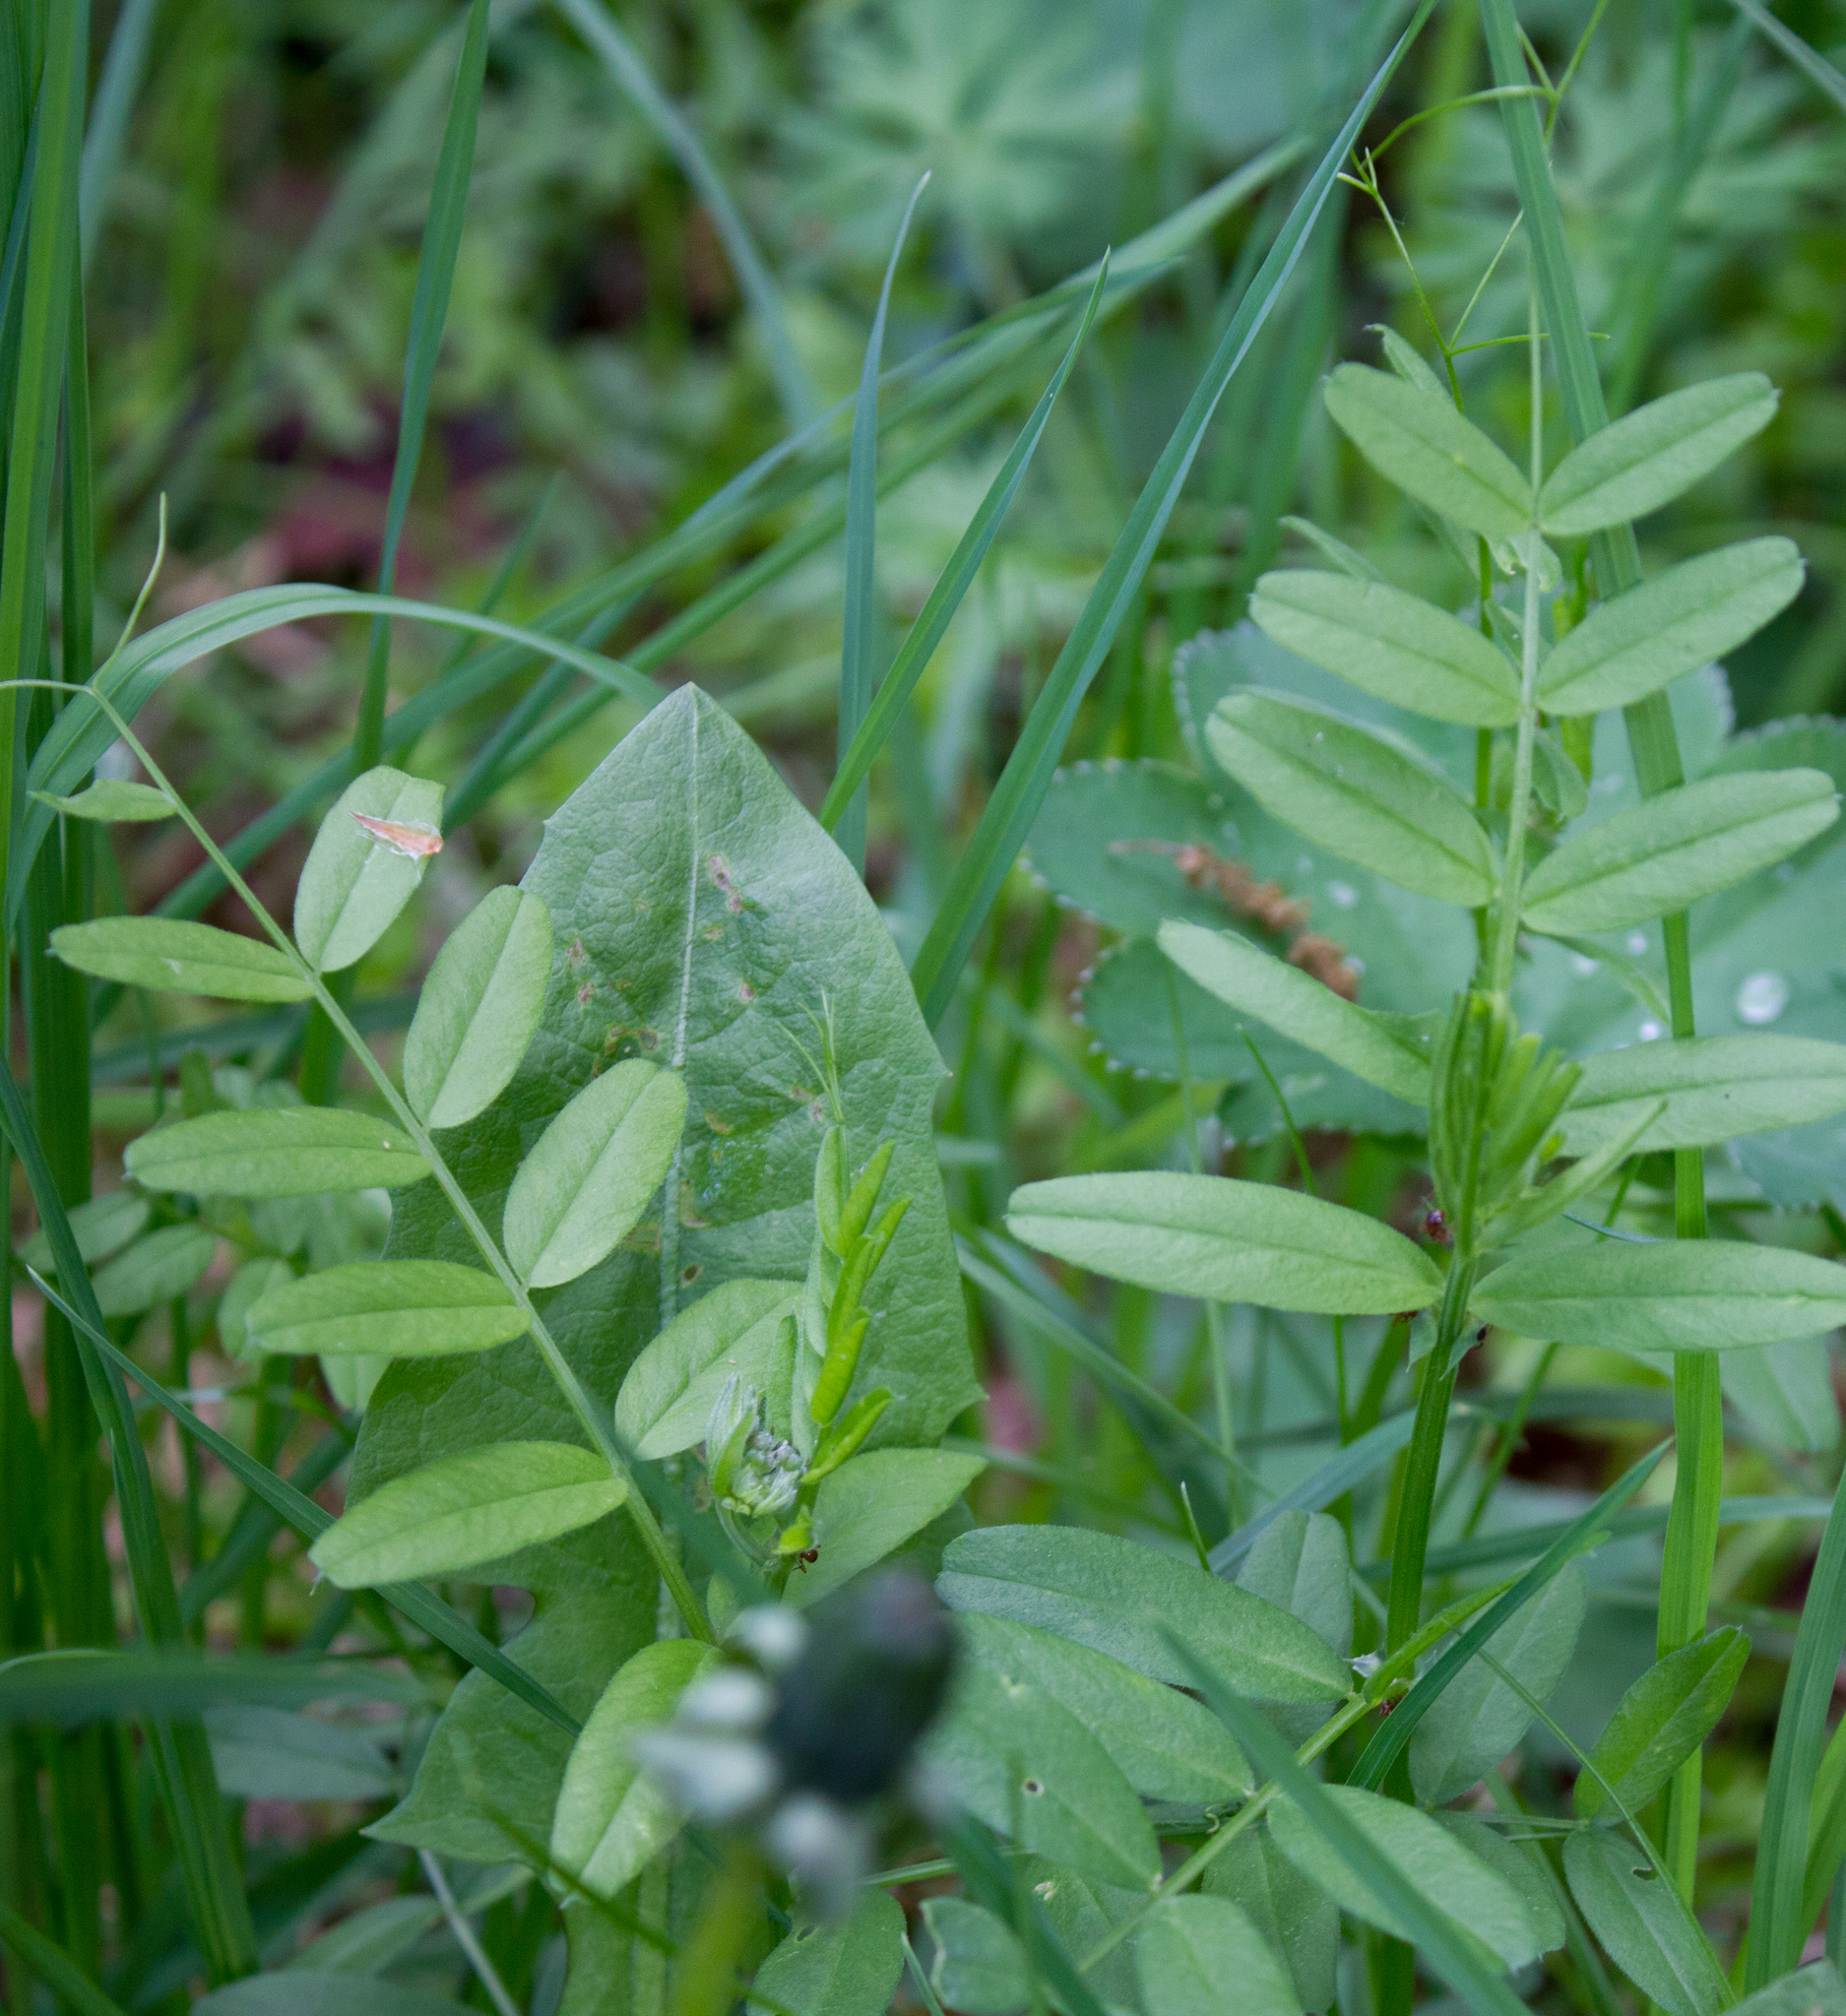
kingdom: Plantae
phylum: Tracheophyta
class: Magnoliopsida
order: Fabales
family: Fabaceae
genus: Vicia
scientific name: Vicia sepium
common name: Bush vetch
